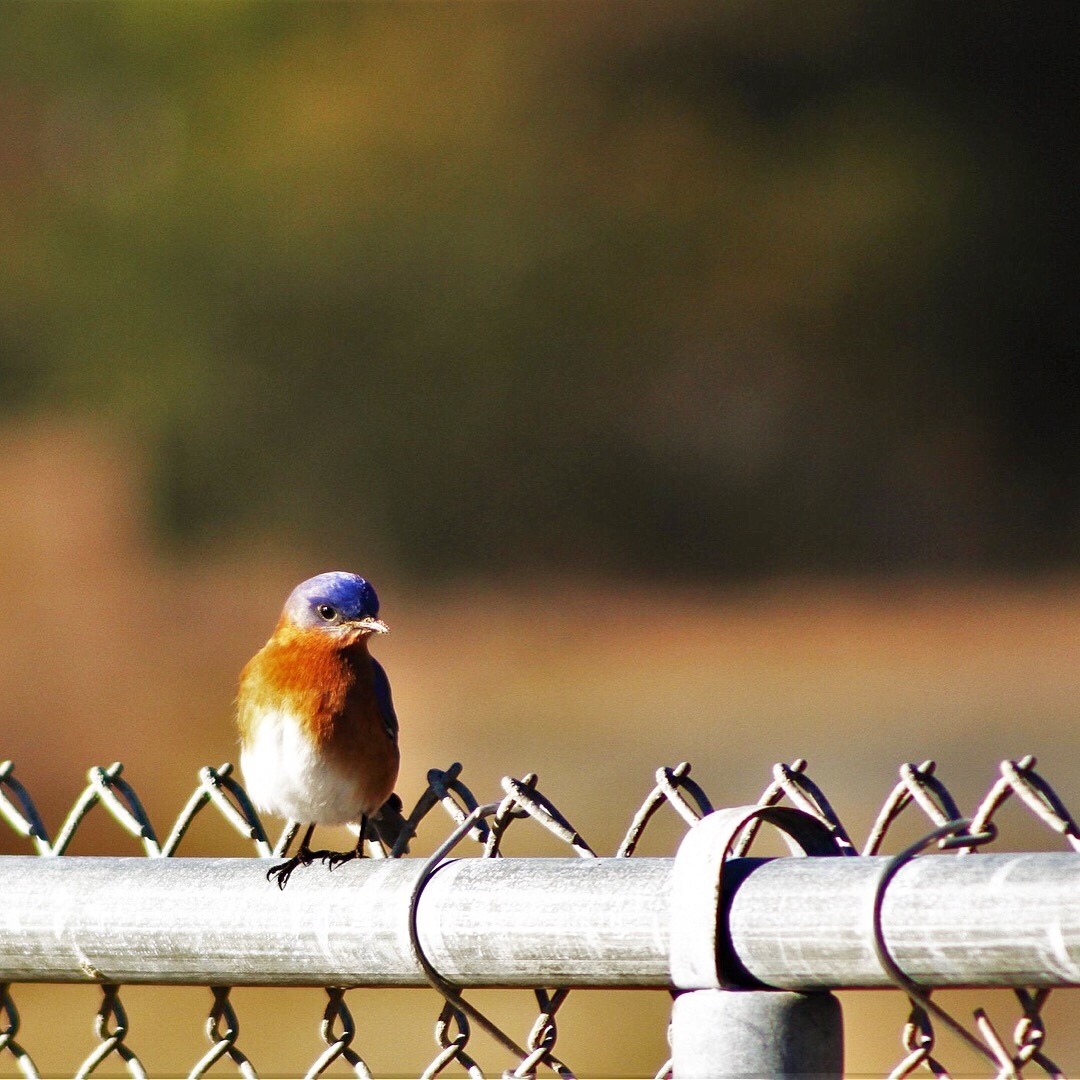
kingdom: Animalia
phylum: Chordata
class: Aves
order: Passeriformes
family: Turdidae
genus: Sialia
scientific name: Sialia sialis
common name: Eastern bluebird
